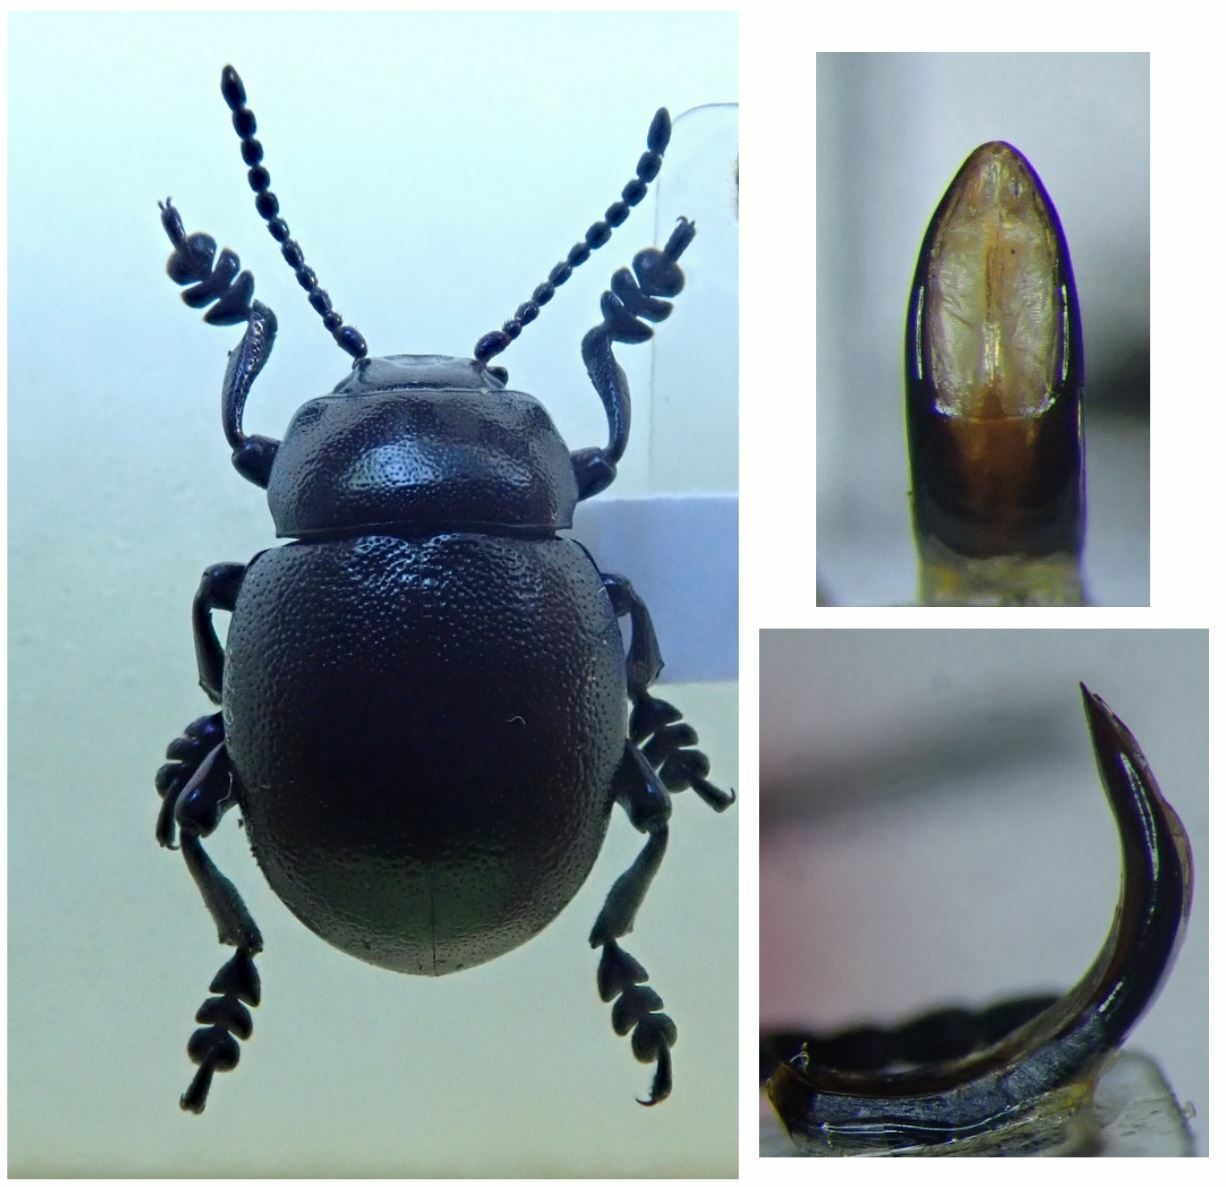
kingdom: Animalia
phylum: Arthropoda
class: Insecta
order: Coleoptera
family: Chrysomelidae
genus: Timarcha
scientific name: Timarcha goettingensis
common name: Small bloody-nosed beetle
